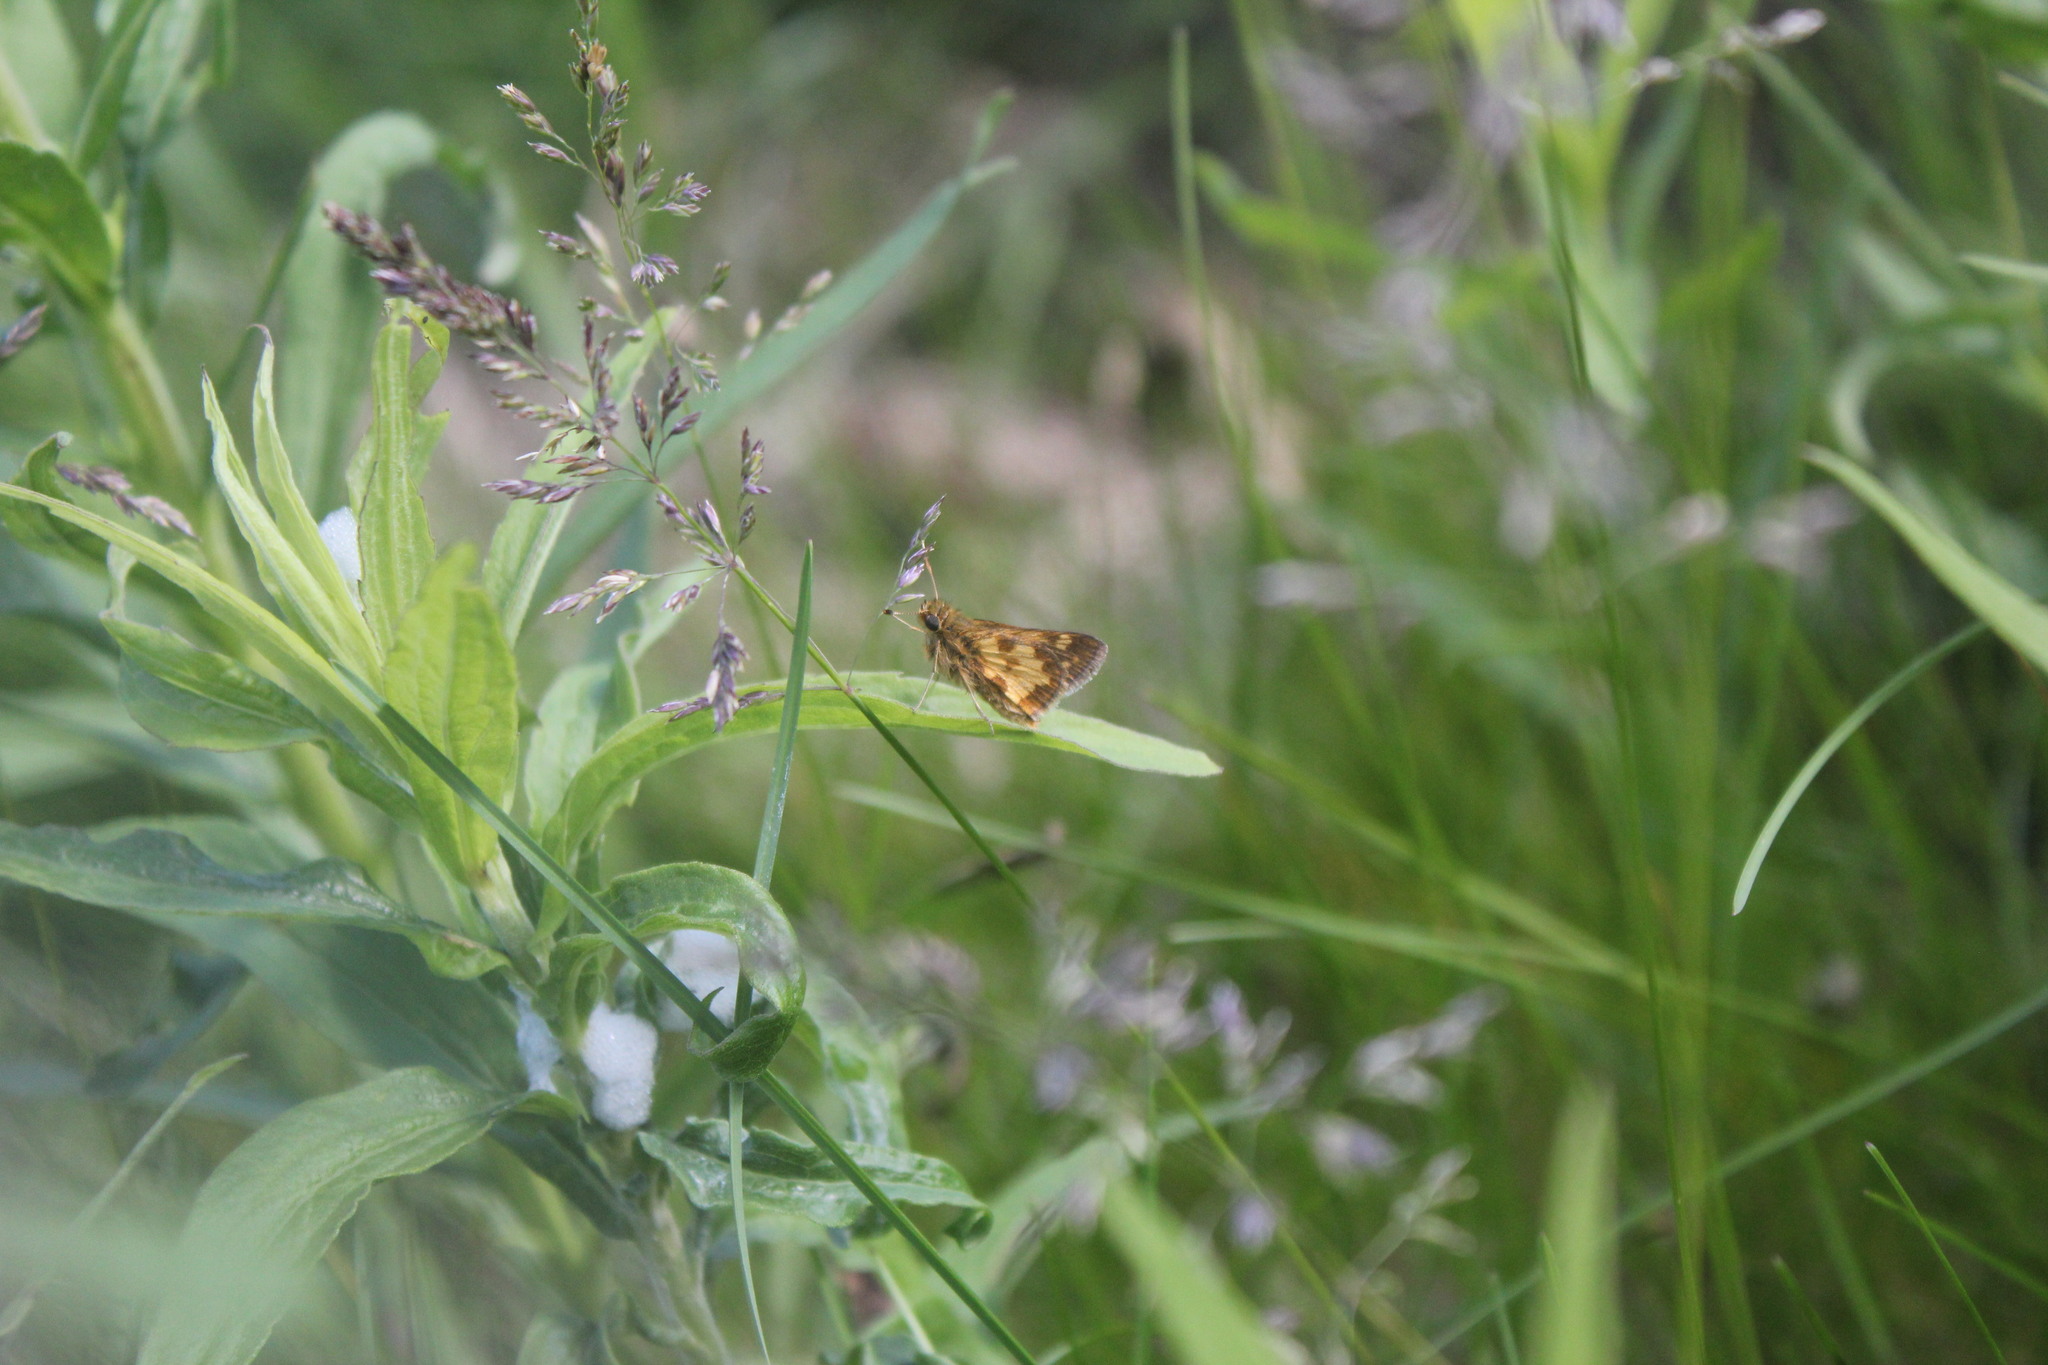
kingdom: Animalia
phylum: Arthropoda
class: Insecta
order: Lepidoptera
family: Hesperiidae
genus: Polites
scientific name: Polites coras
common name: Peck's skipper
